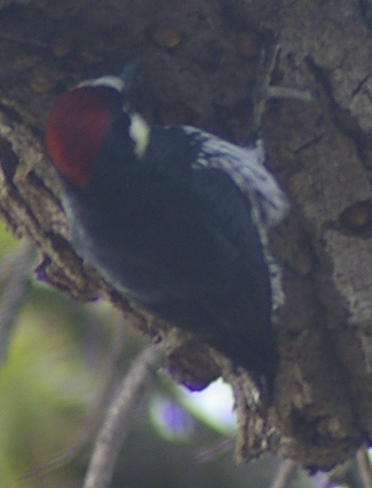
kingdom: Animalia
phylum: Chordata
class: Aves
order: Piciformes
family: Picidae
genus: Melanerpes
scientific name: Melanerpes formicivorus
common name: Acorn woodpecker
